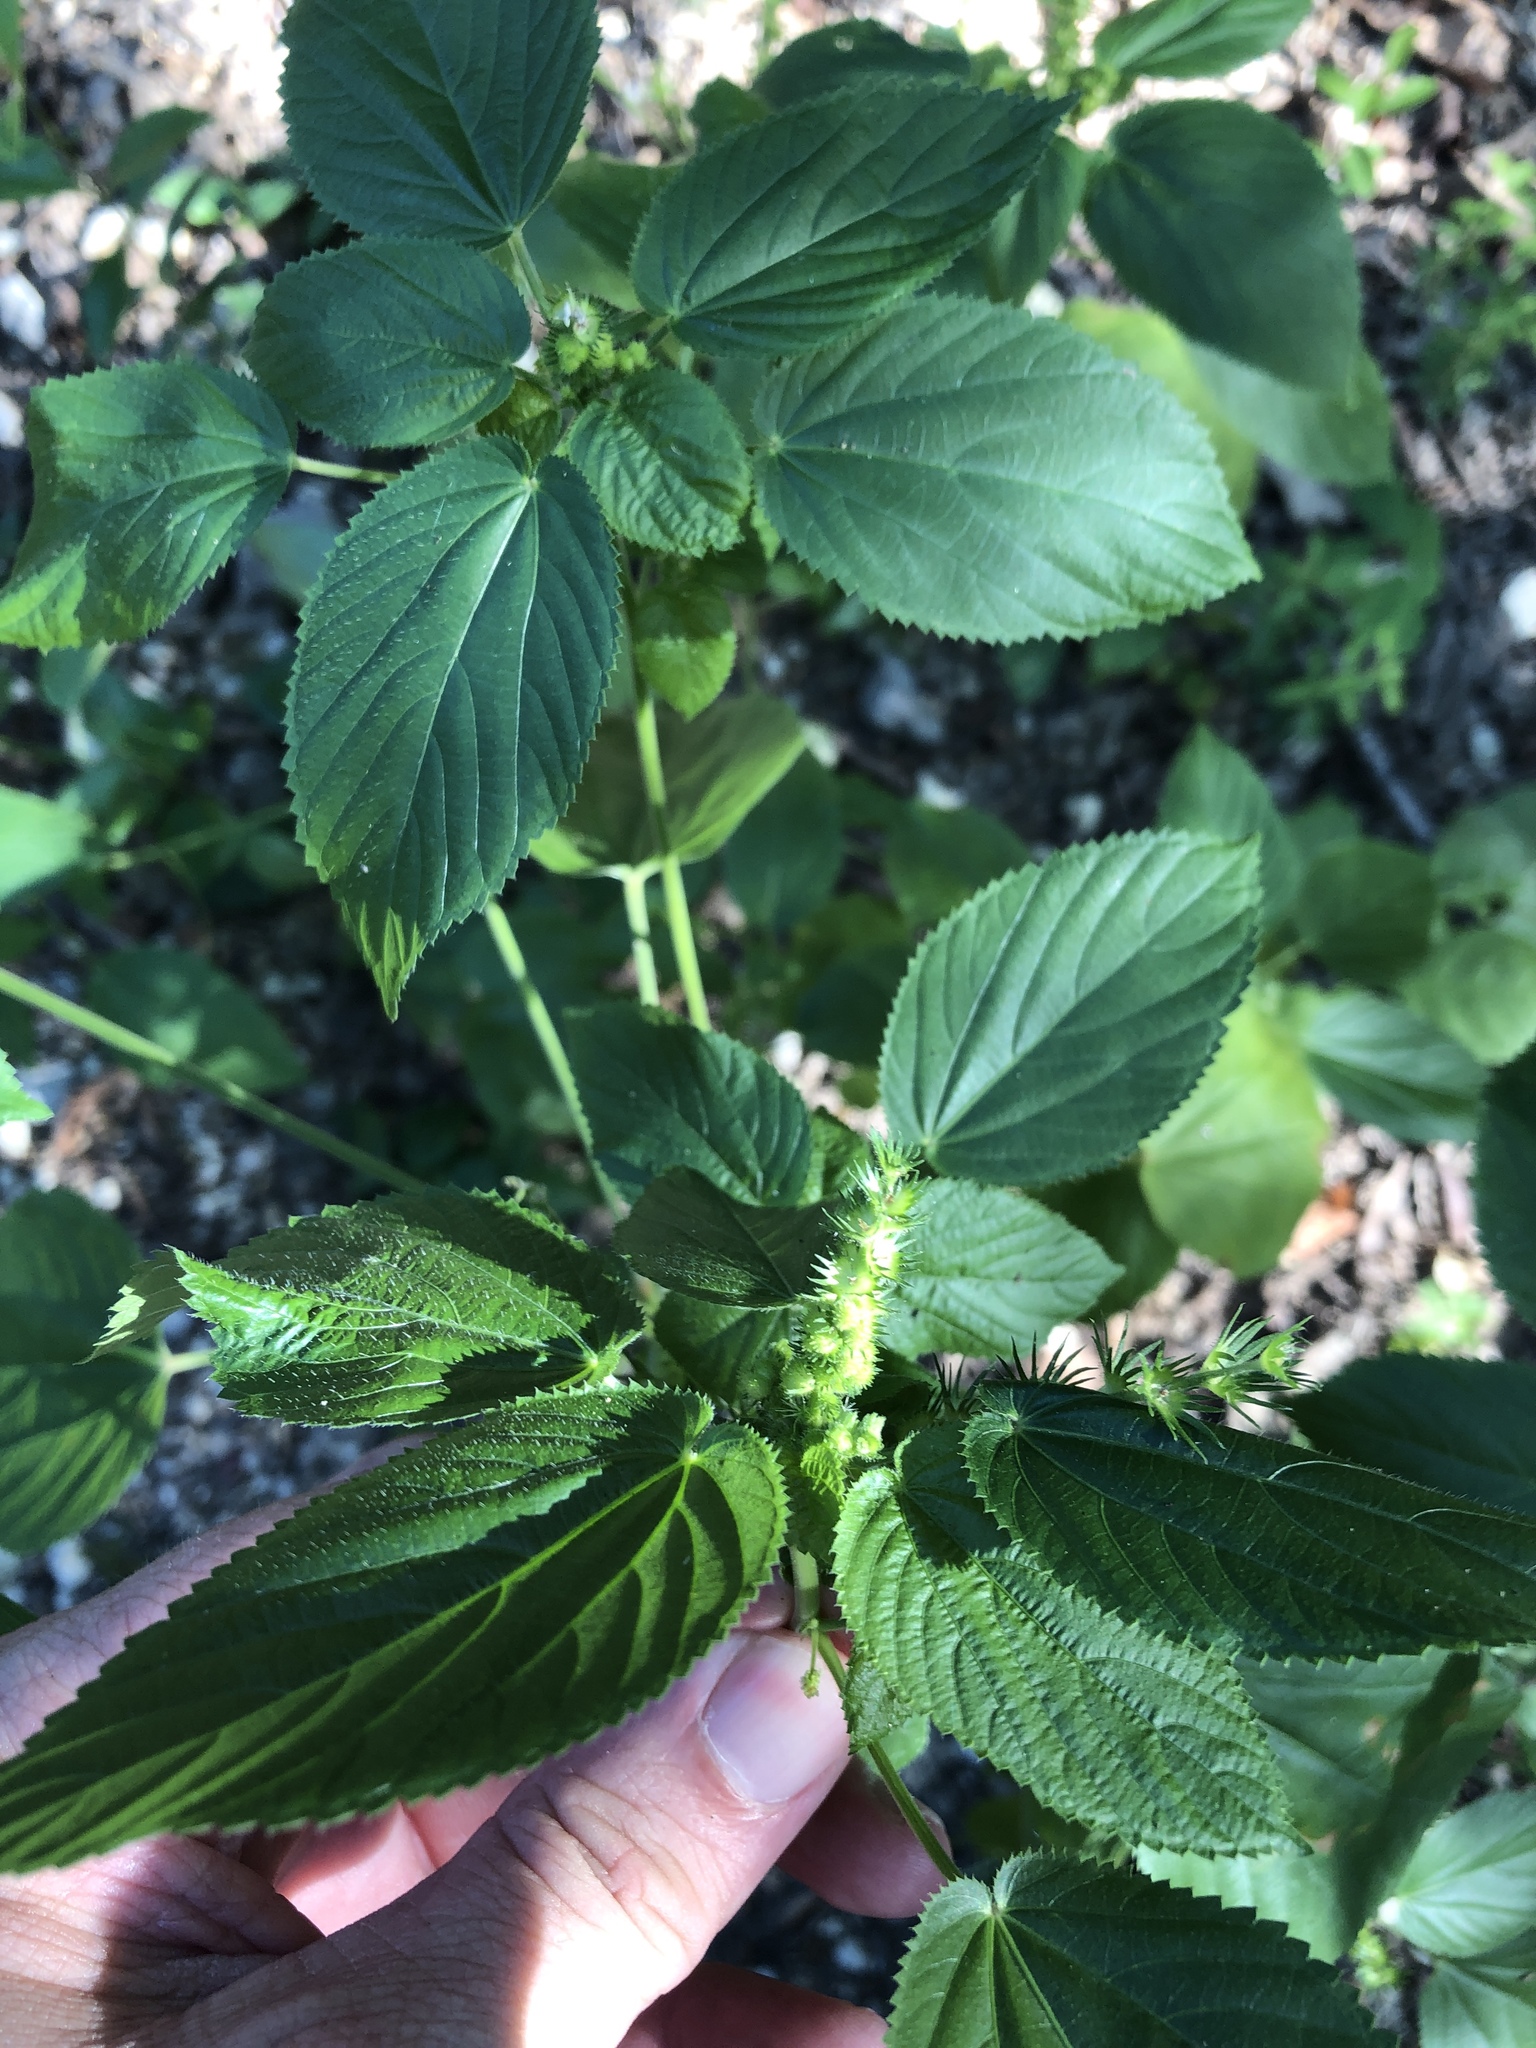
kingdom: Plantae
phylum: Tracheophyta
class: Magnoliopsida
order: Malpighiales
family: Euphorbiaceae
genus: Acalypha
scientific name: Acalypha ostryifolia
